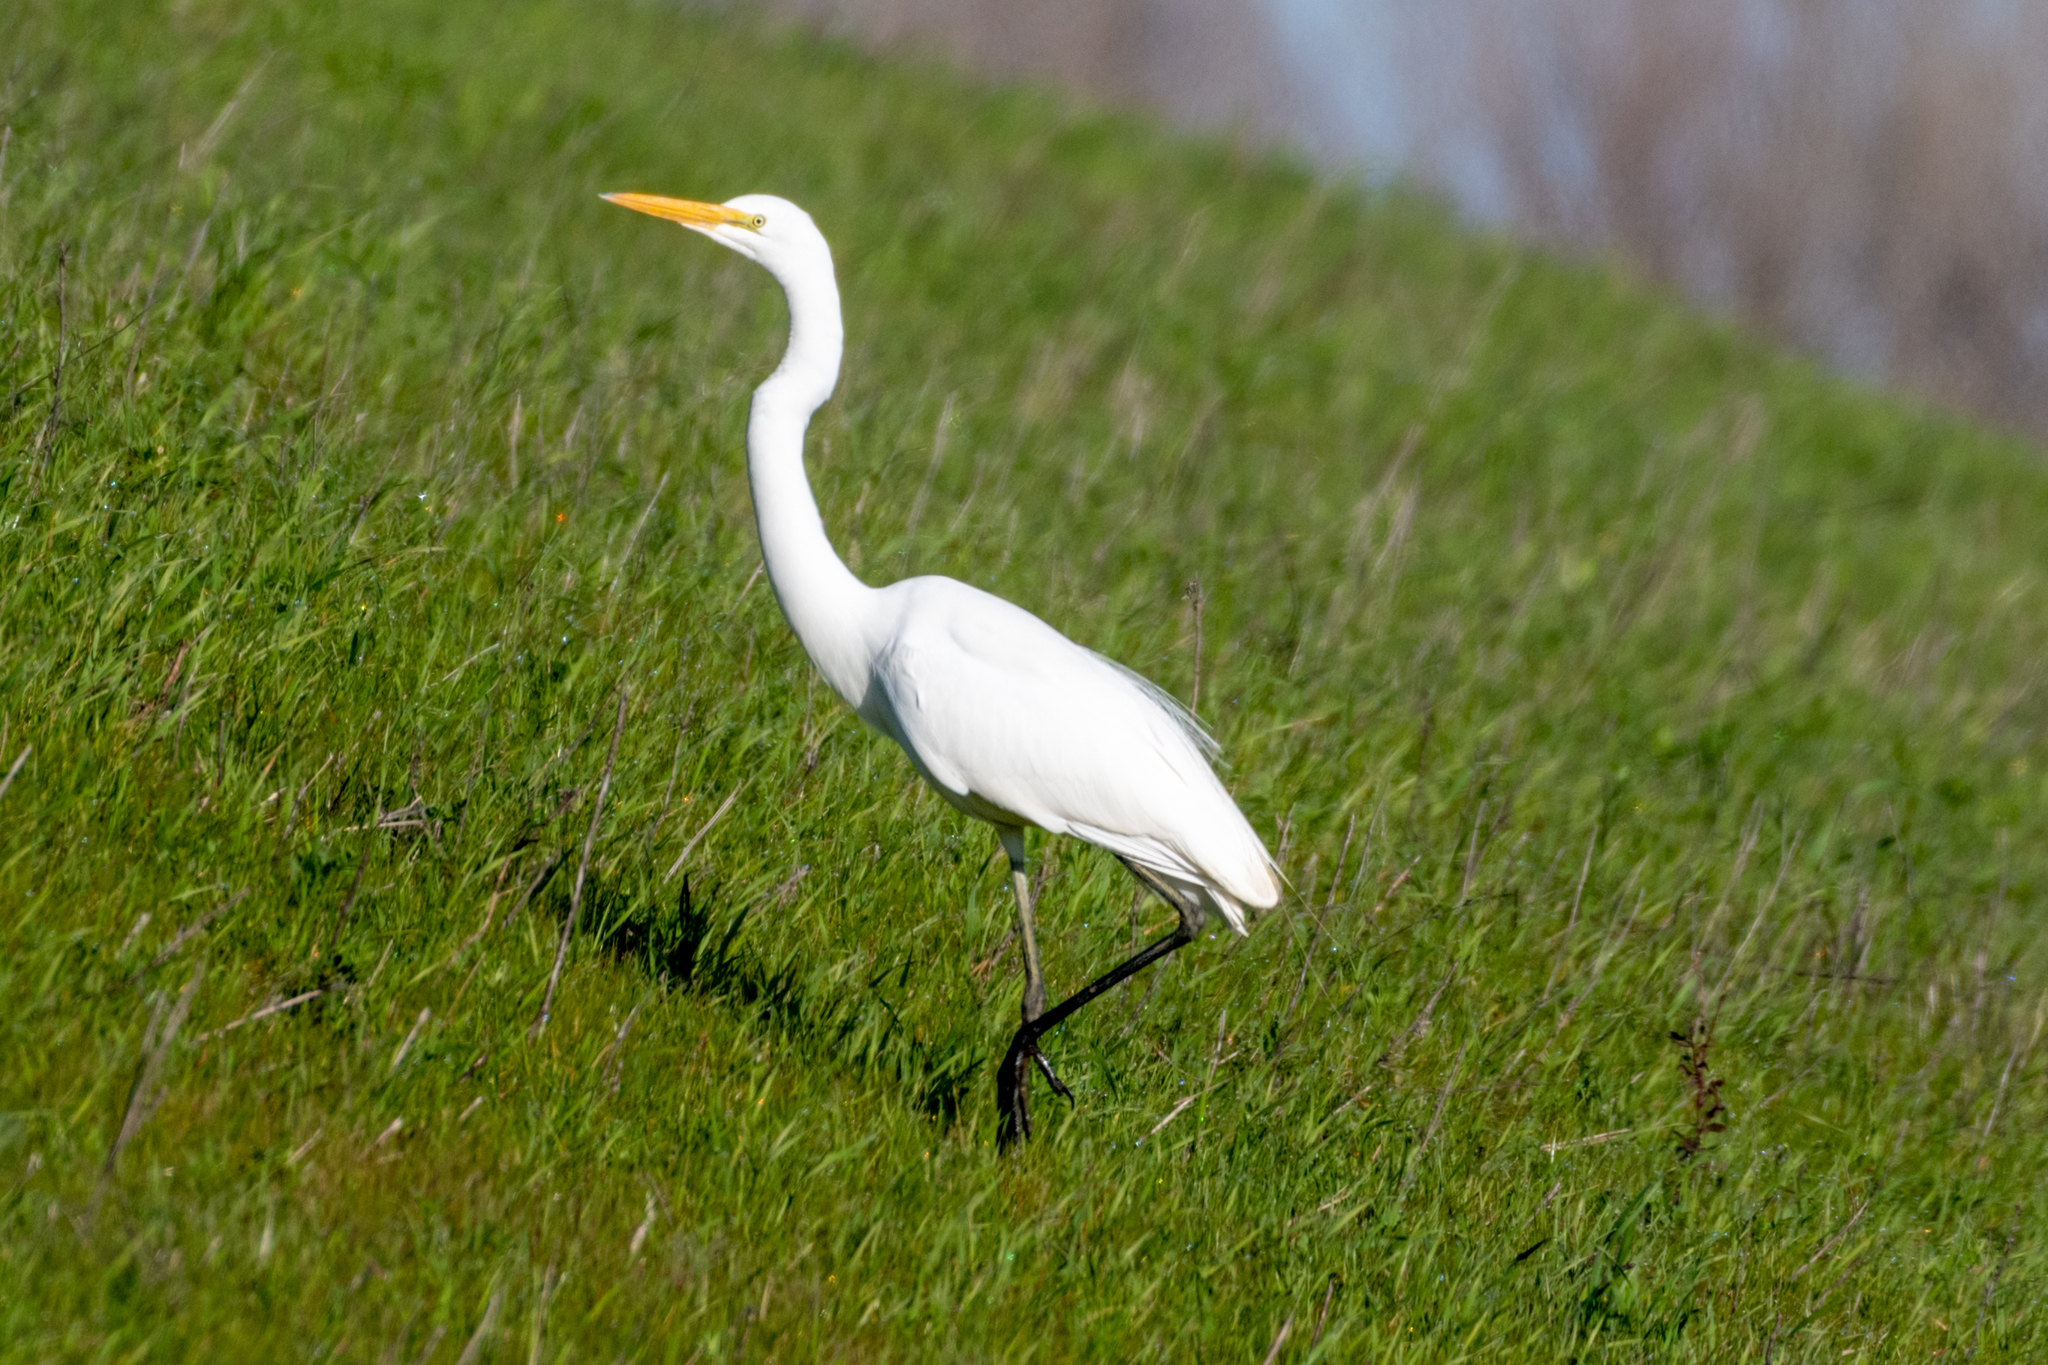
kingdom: Animalia
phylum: Chordata
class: Aves
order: Pelecaniformes
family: Ardeidae
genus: Ardea
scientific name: Ardea alba
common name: Great egret
